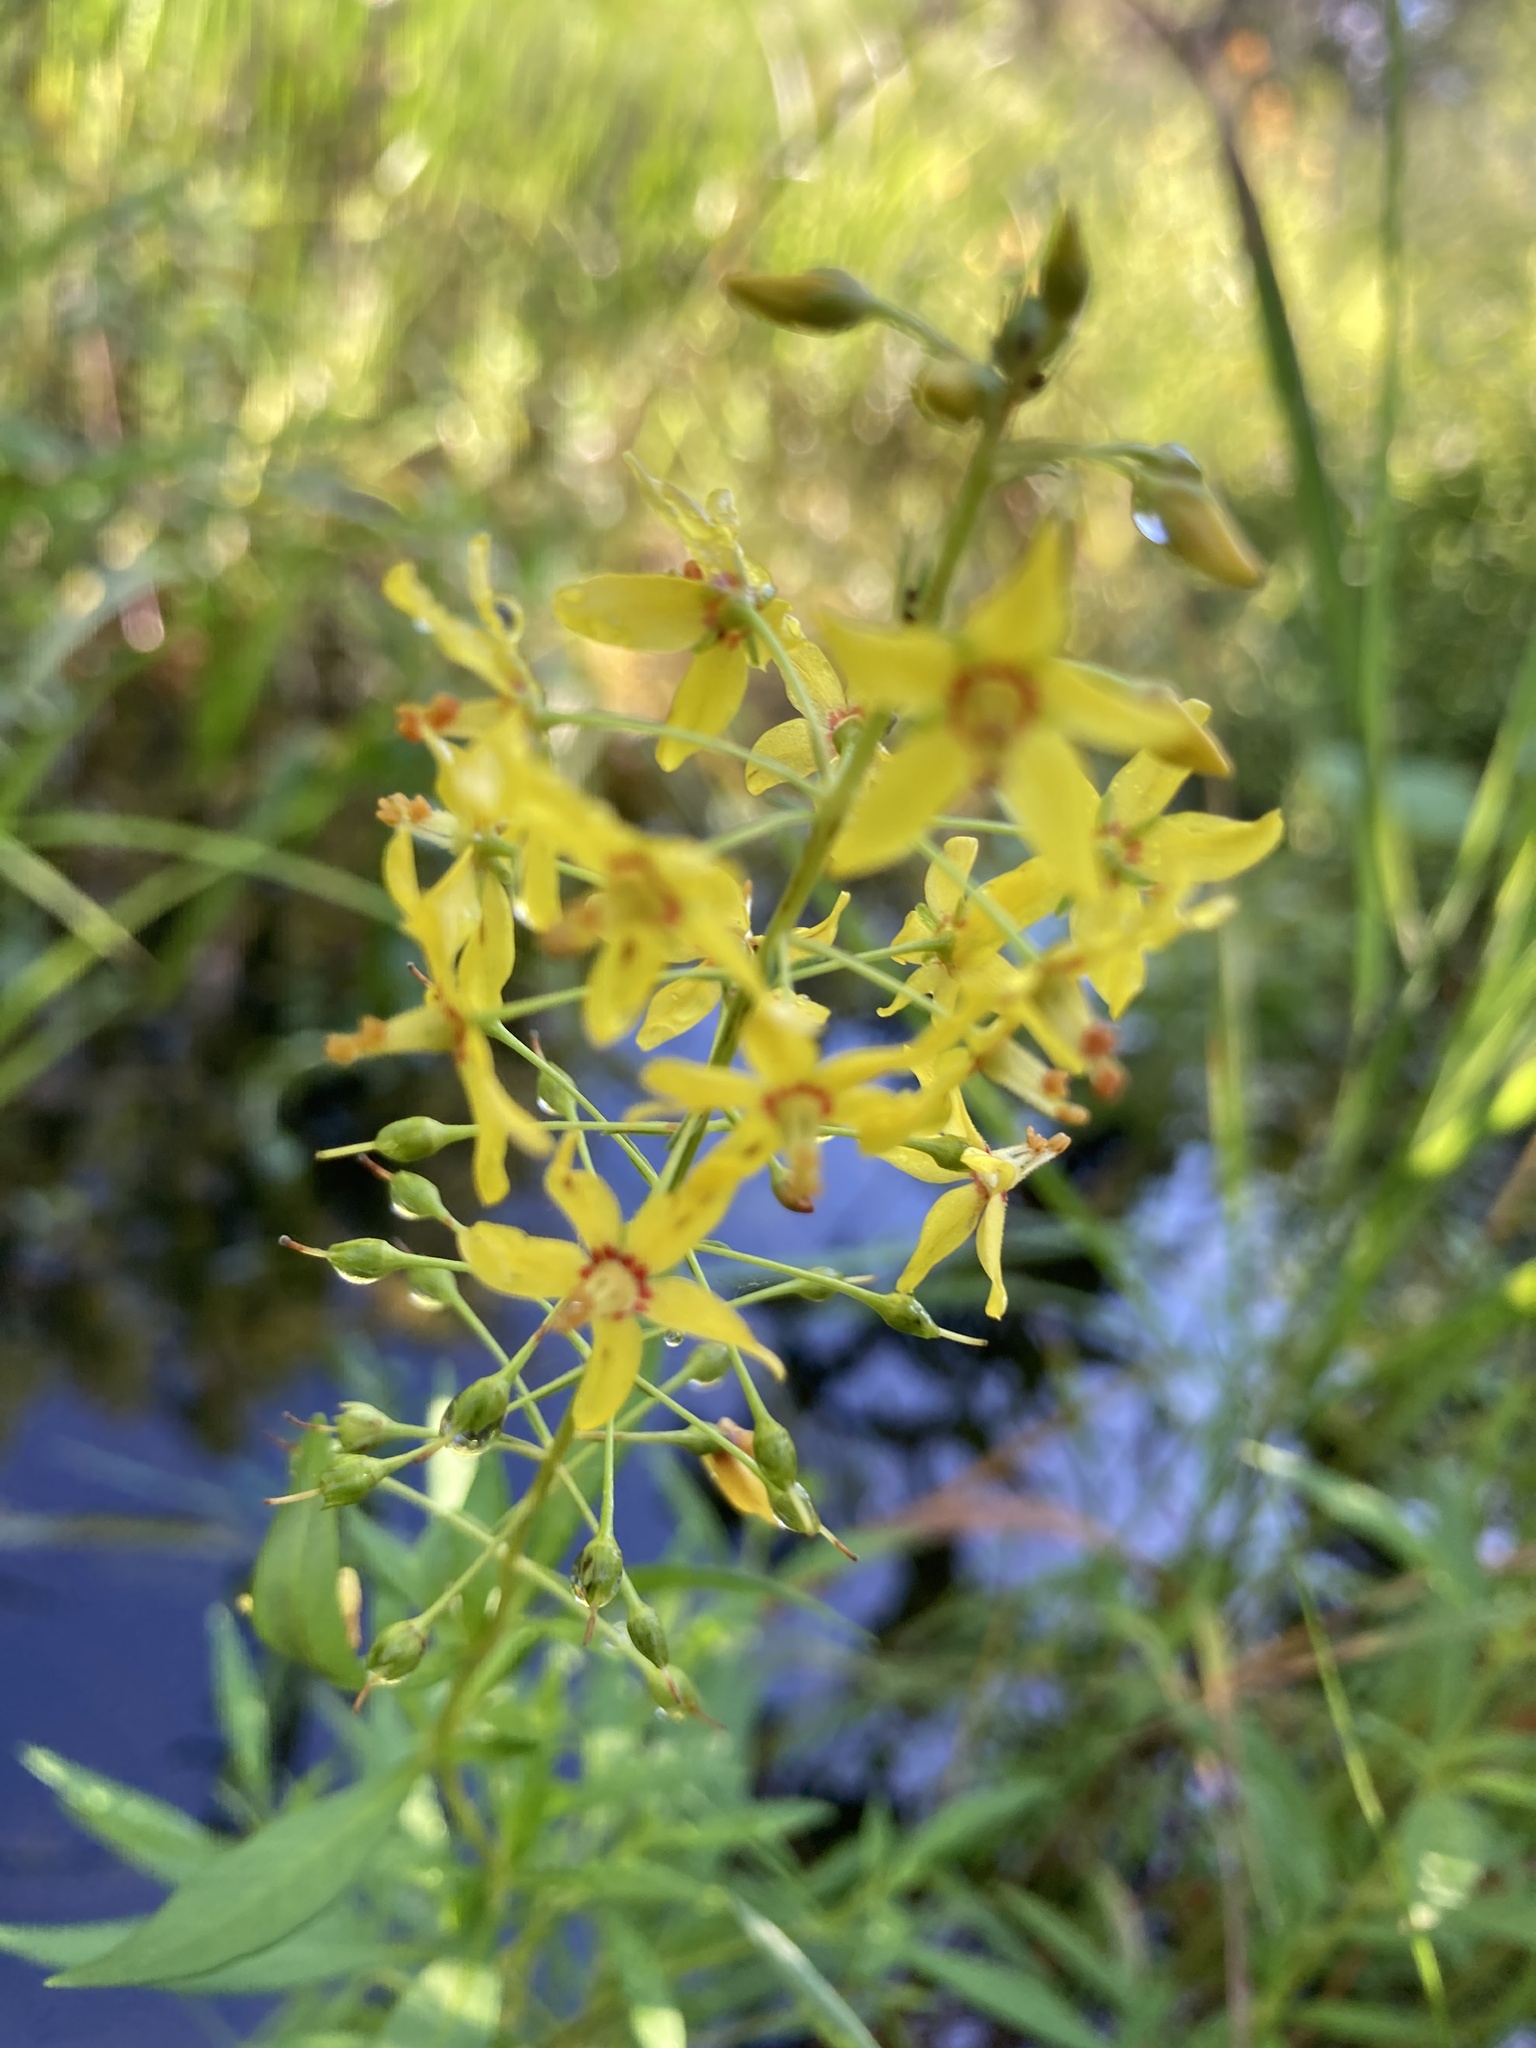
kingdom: Plantae
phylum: Tracheophyta
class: Magnoliopsida
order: Ericales
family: Primulaceae
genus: Lysimachia
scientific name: Lysimachia terrestris
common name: Lake loosestrife
